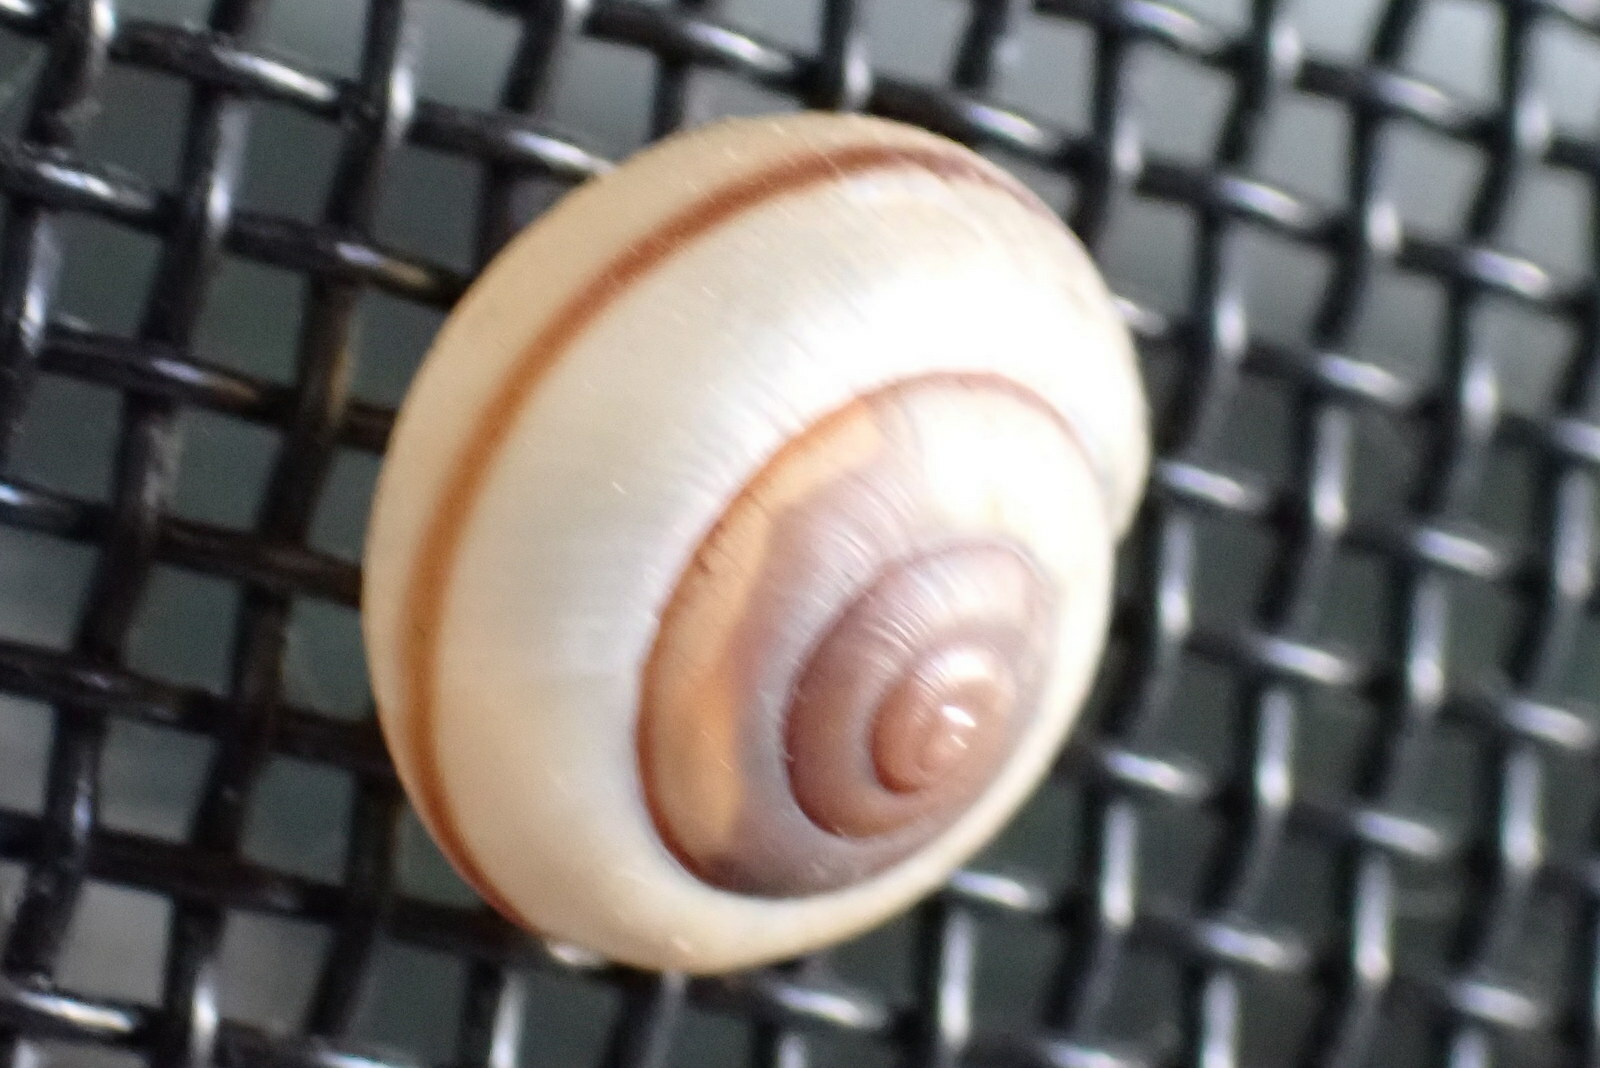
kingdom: Animalia
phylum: Mollusca
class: Gastropoda
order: Stylommatophora
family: Camaenidae
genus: Bradybaena
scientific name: Bradybaena similaris
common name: Asian trampsnail
